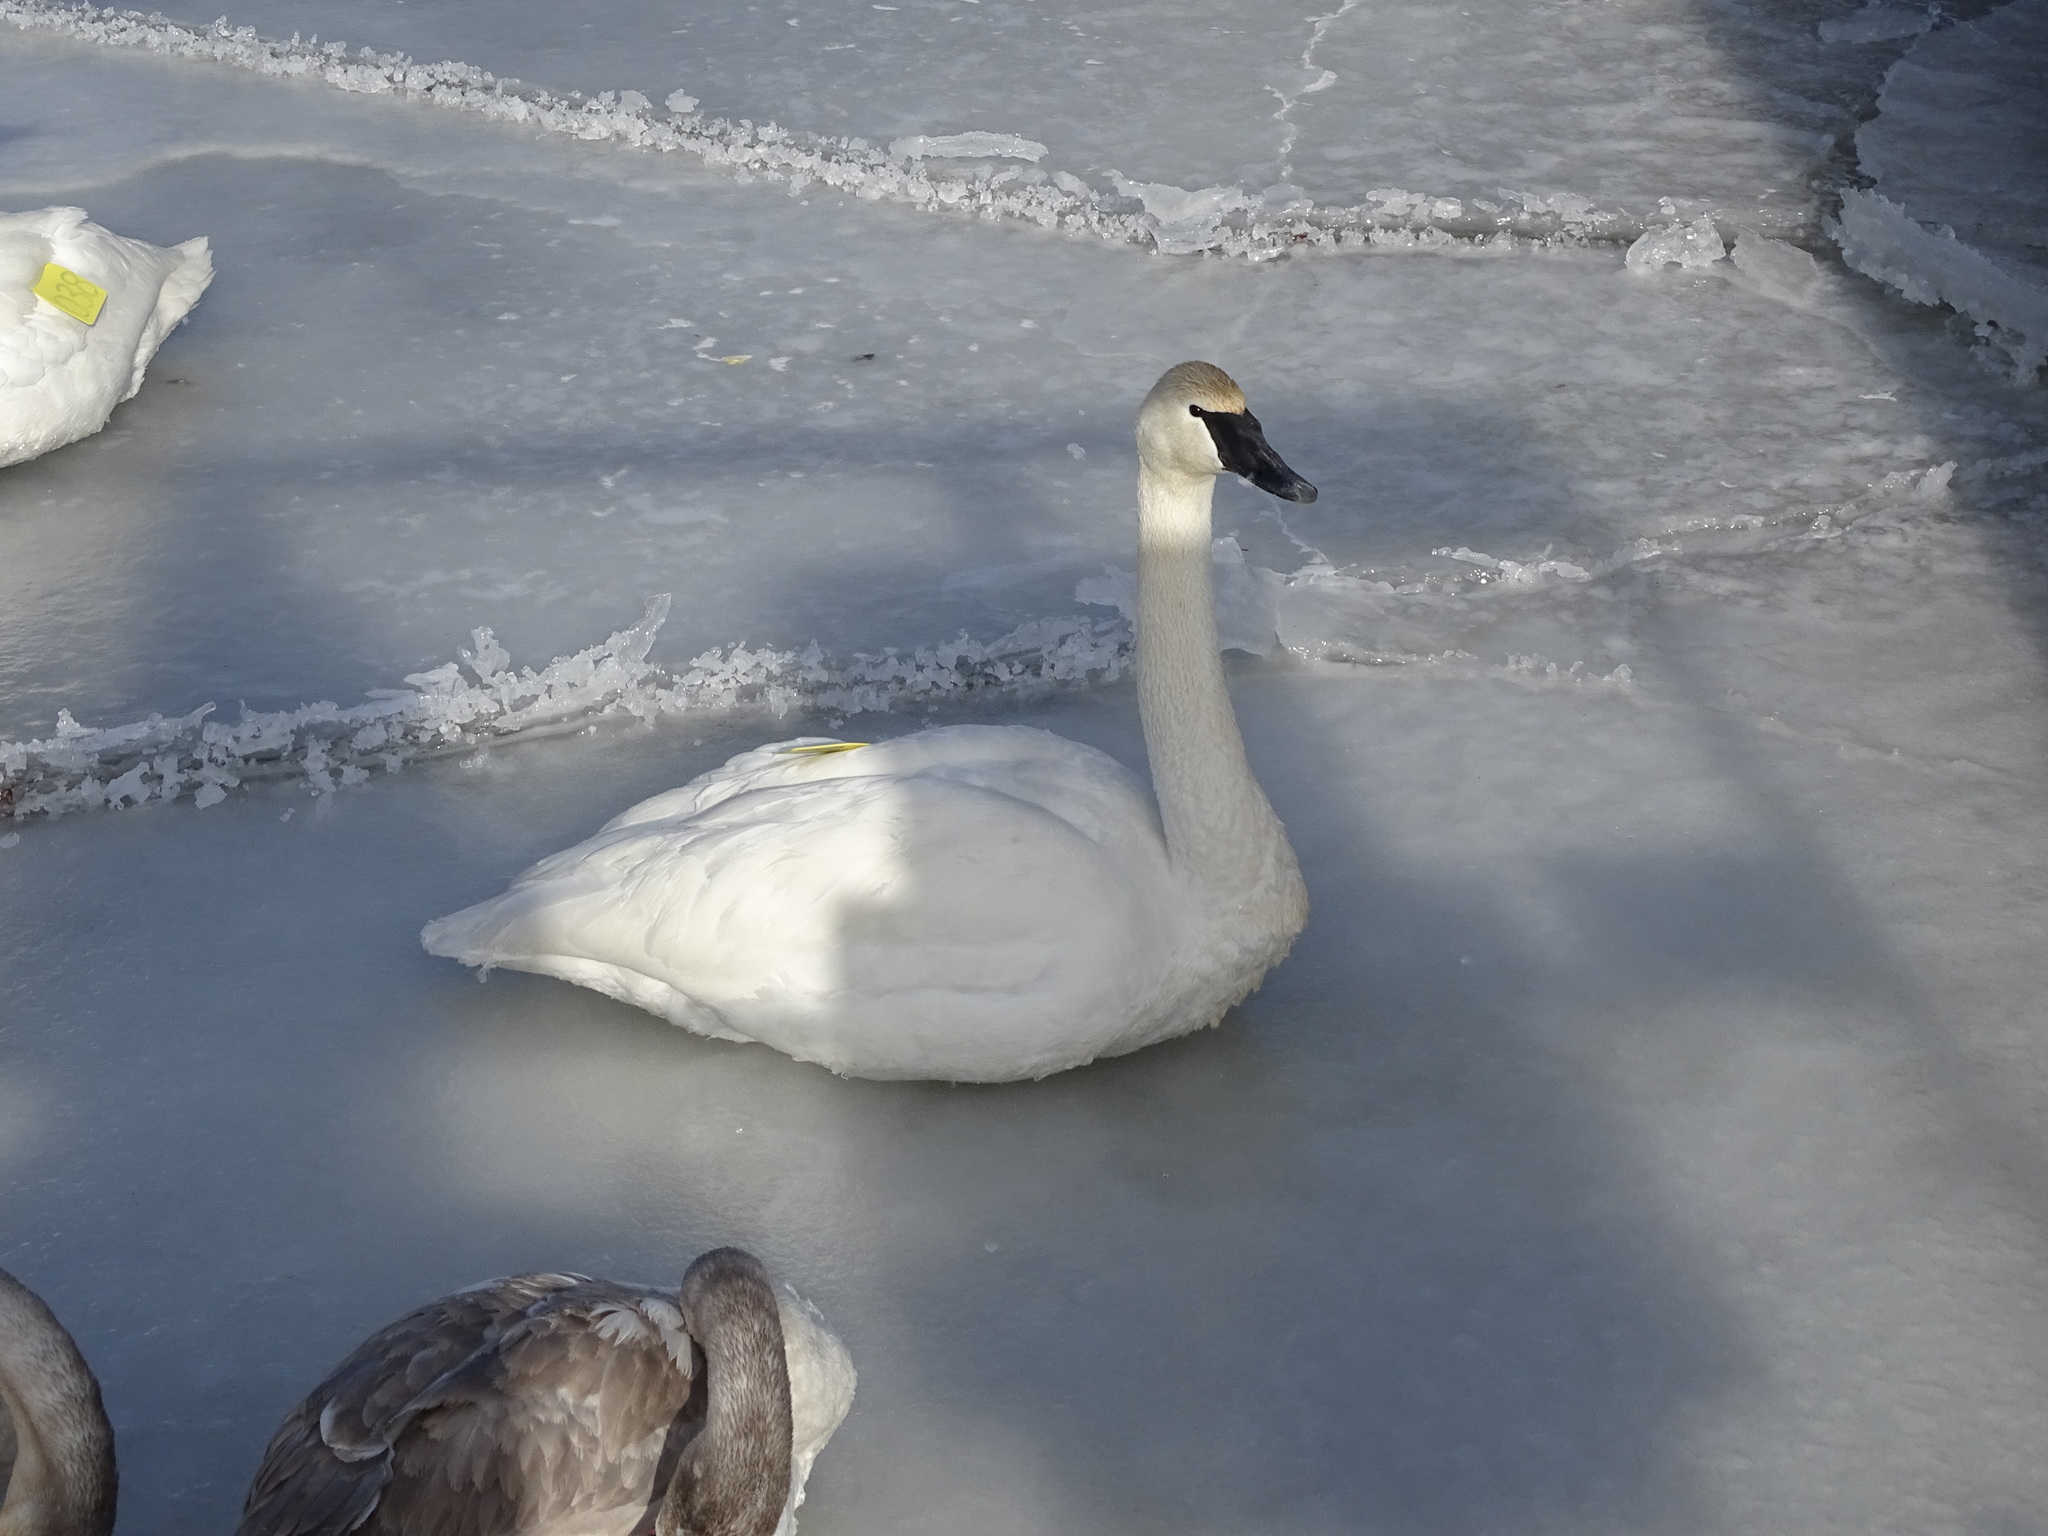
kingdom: Animalia
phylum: Chordata
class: Aves
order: Anseriformes
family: Anatidae
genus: Cygnus
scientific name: Cygnus buccinator
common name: Trumpeter swan
